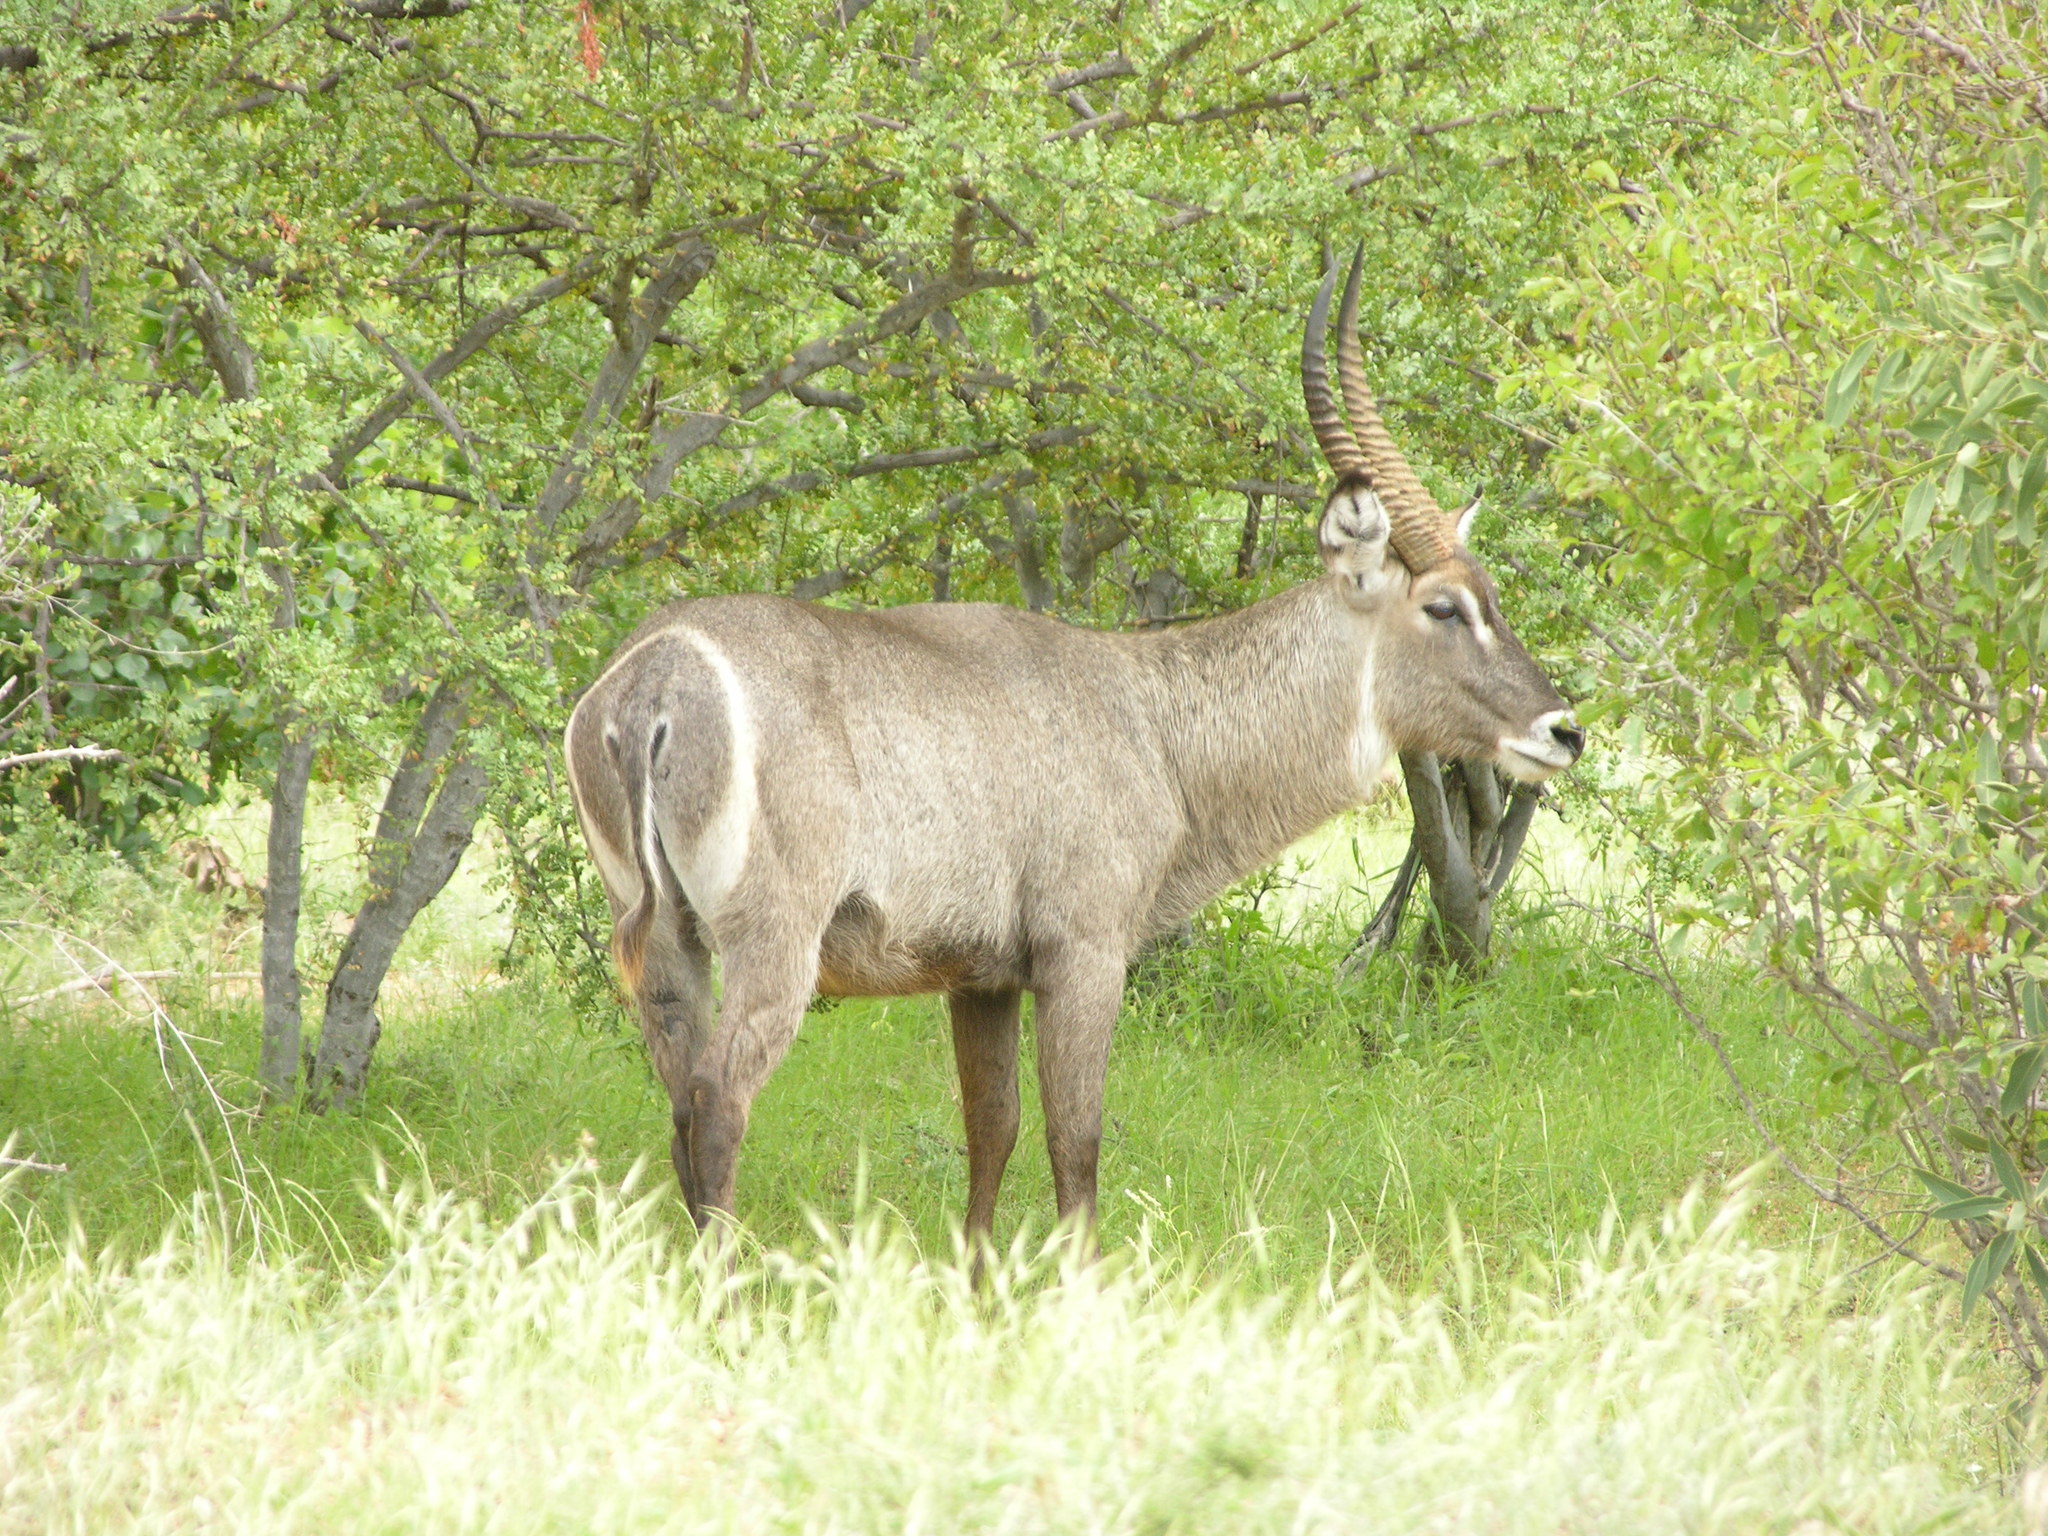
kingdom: Animalia
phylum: Chordata
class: Mammalia
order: Artiodactyla
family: Bovidae
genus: Kobus
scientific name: Kobus ellipsiprymnus
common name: Waterbuck
